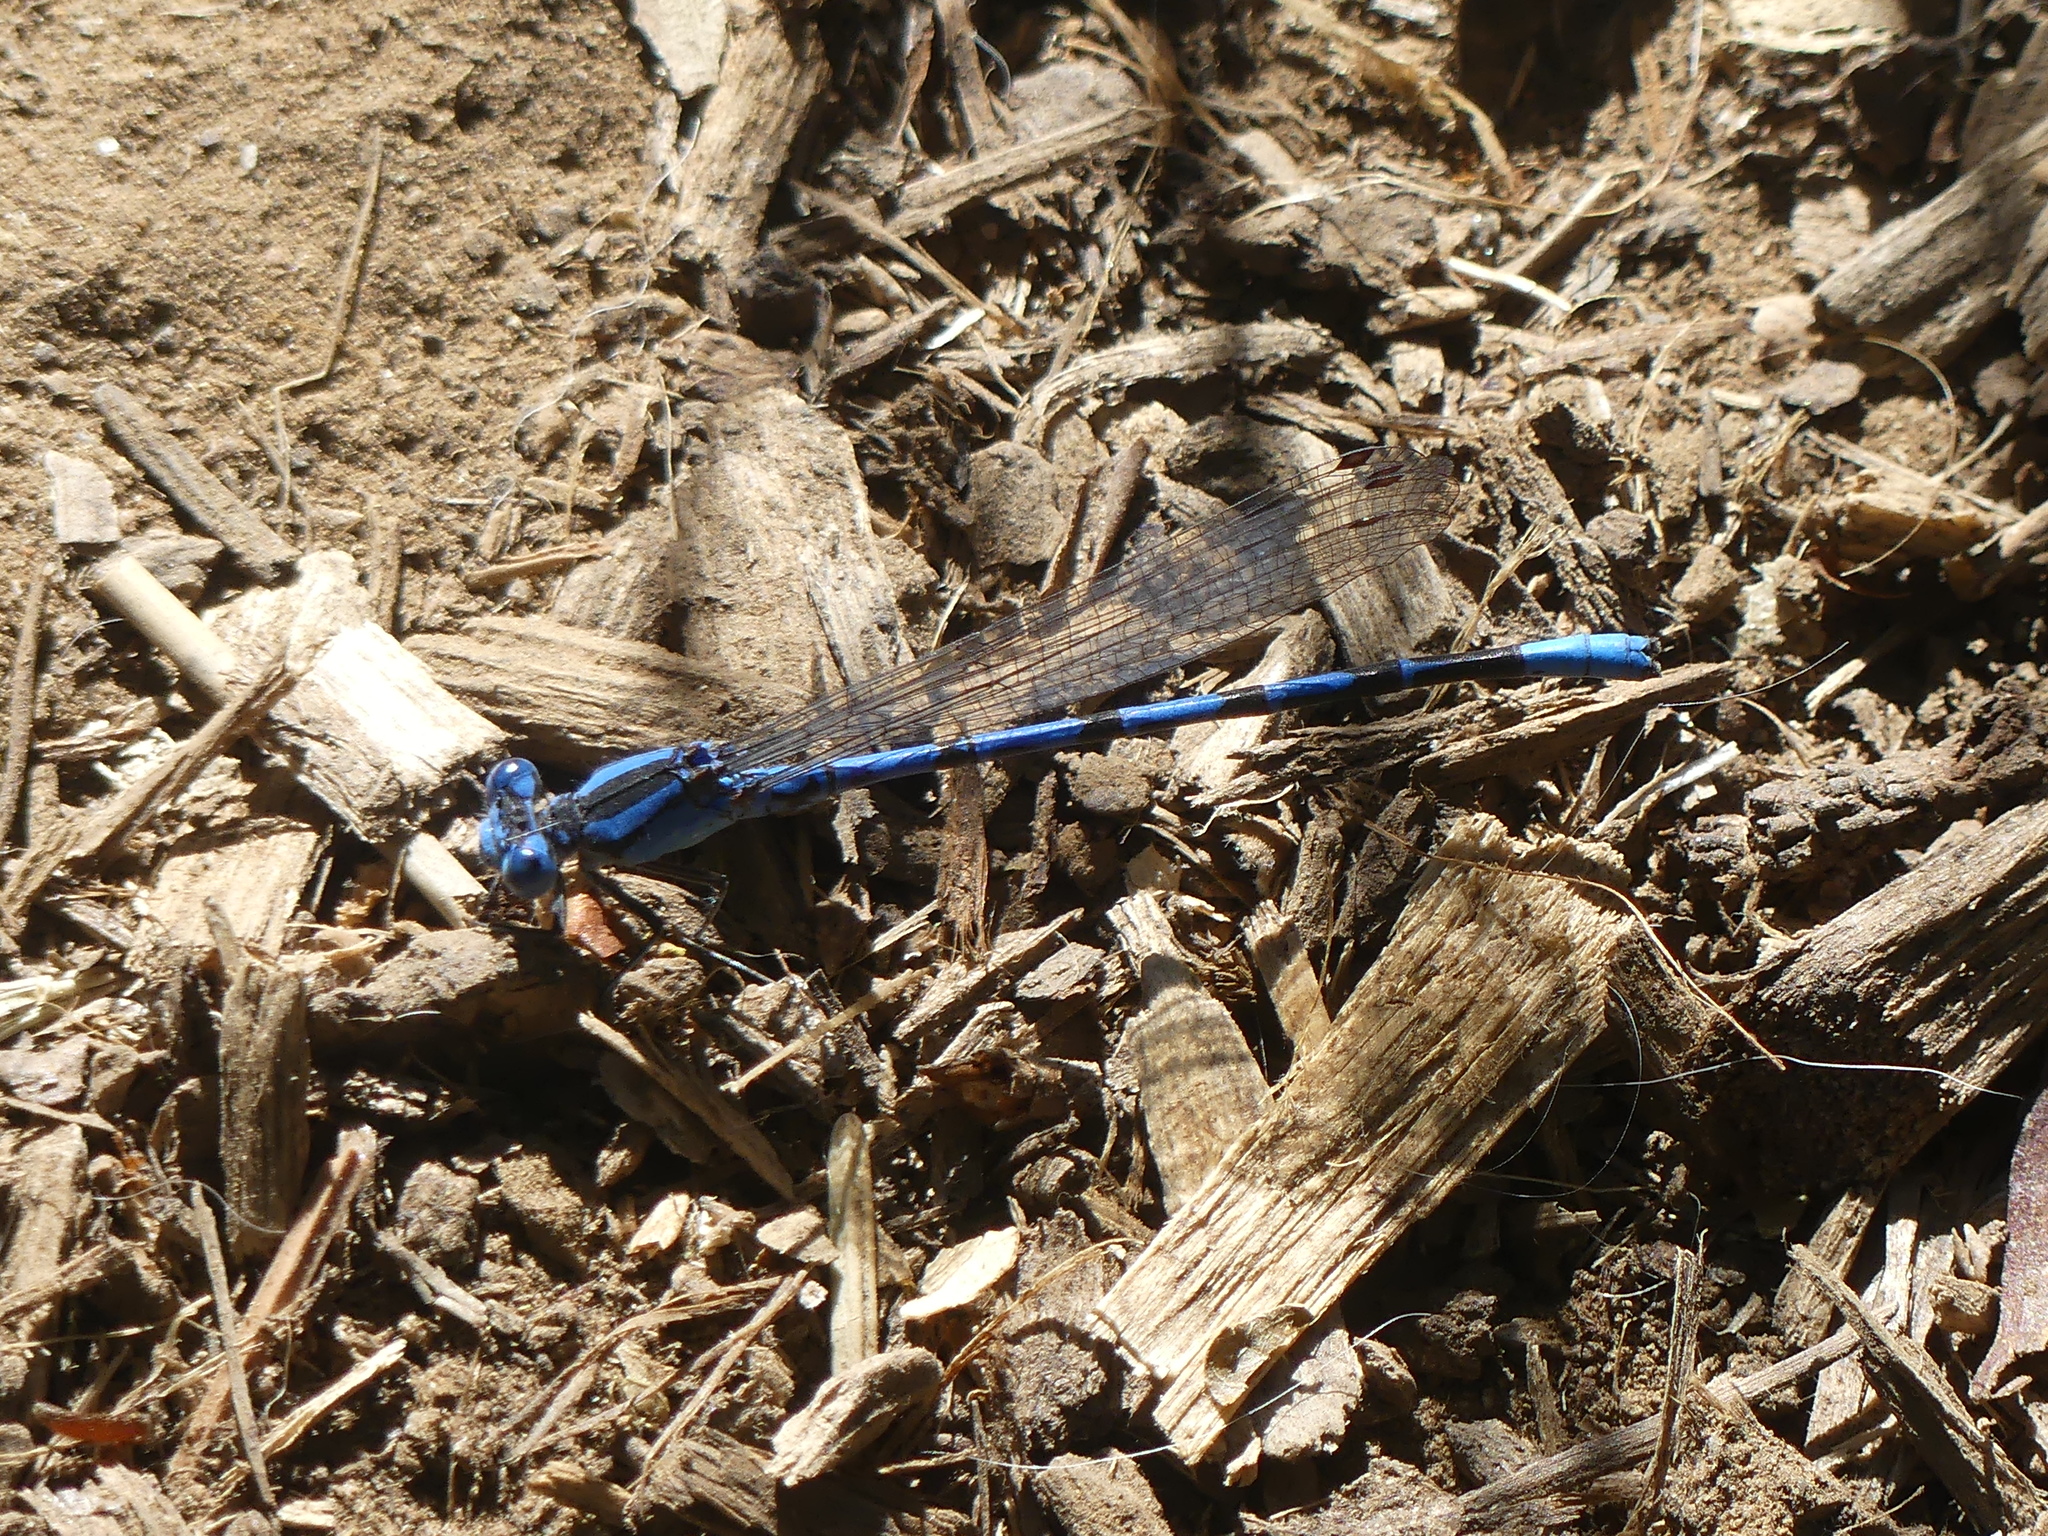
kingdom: Animalia
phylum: Arthropoda
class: Insecta
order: Odonata
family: Coenagrionidae
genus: Argia
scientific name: Argia vivida
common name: Vivid dancer
